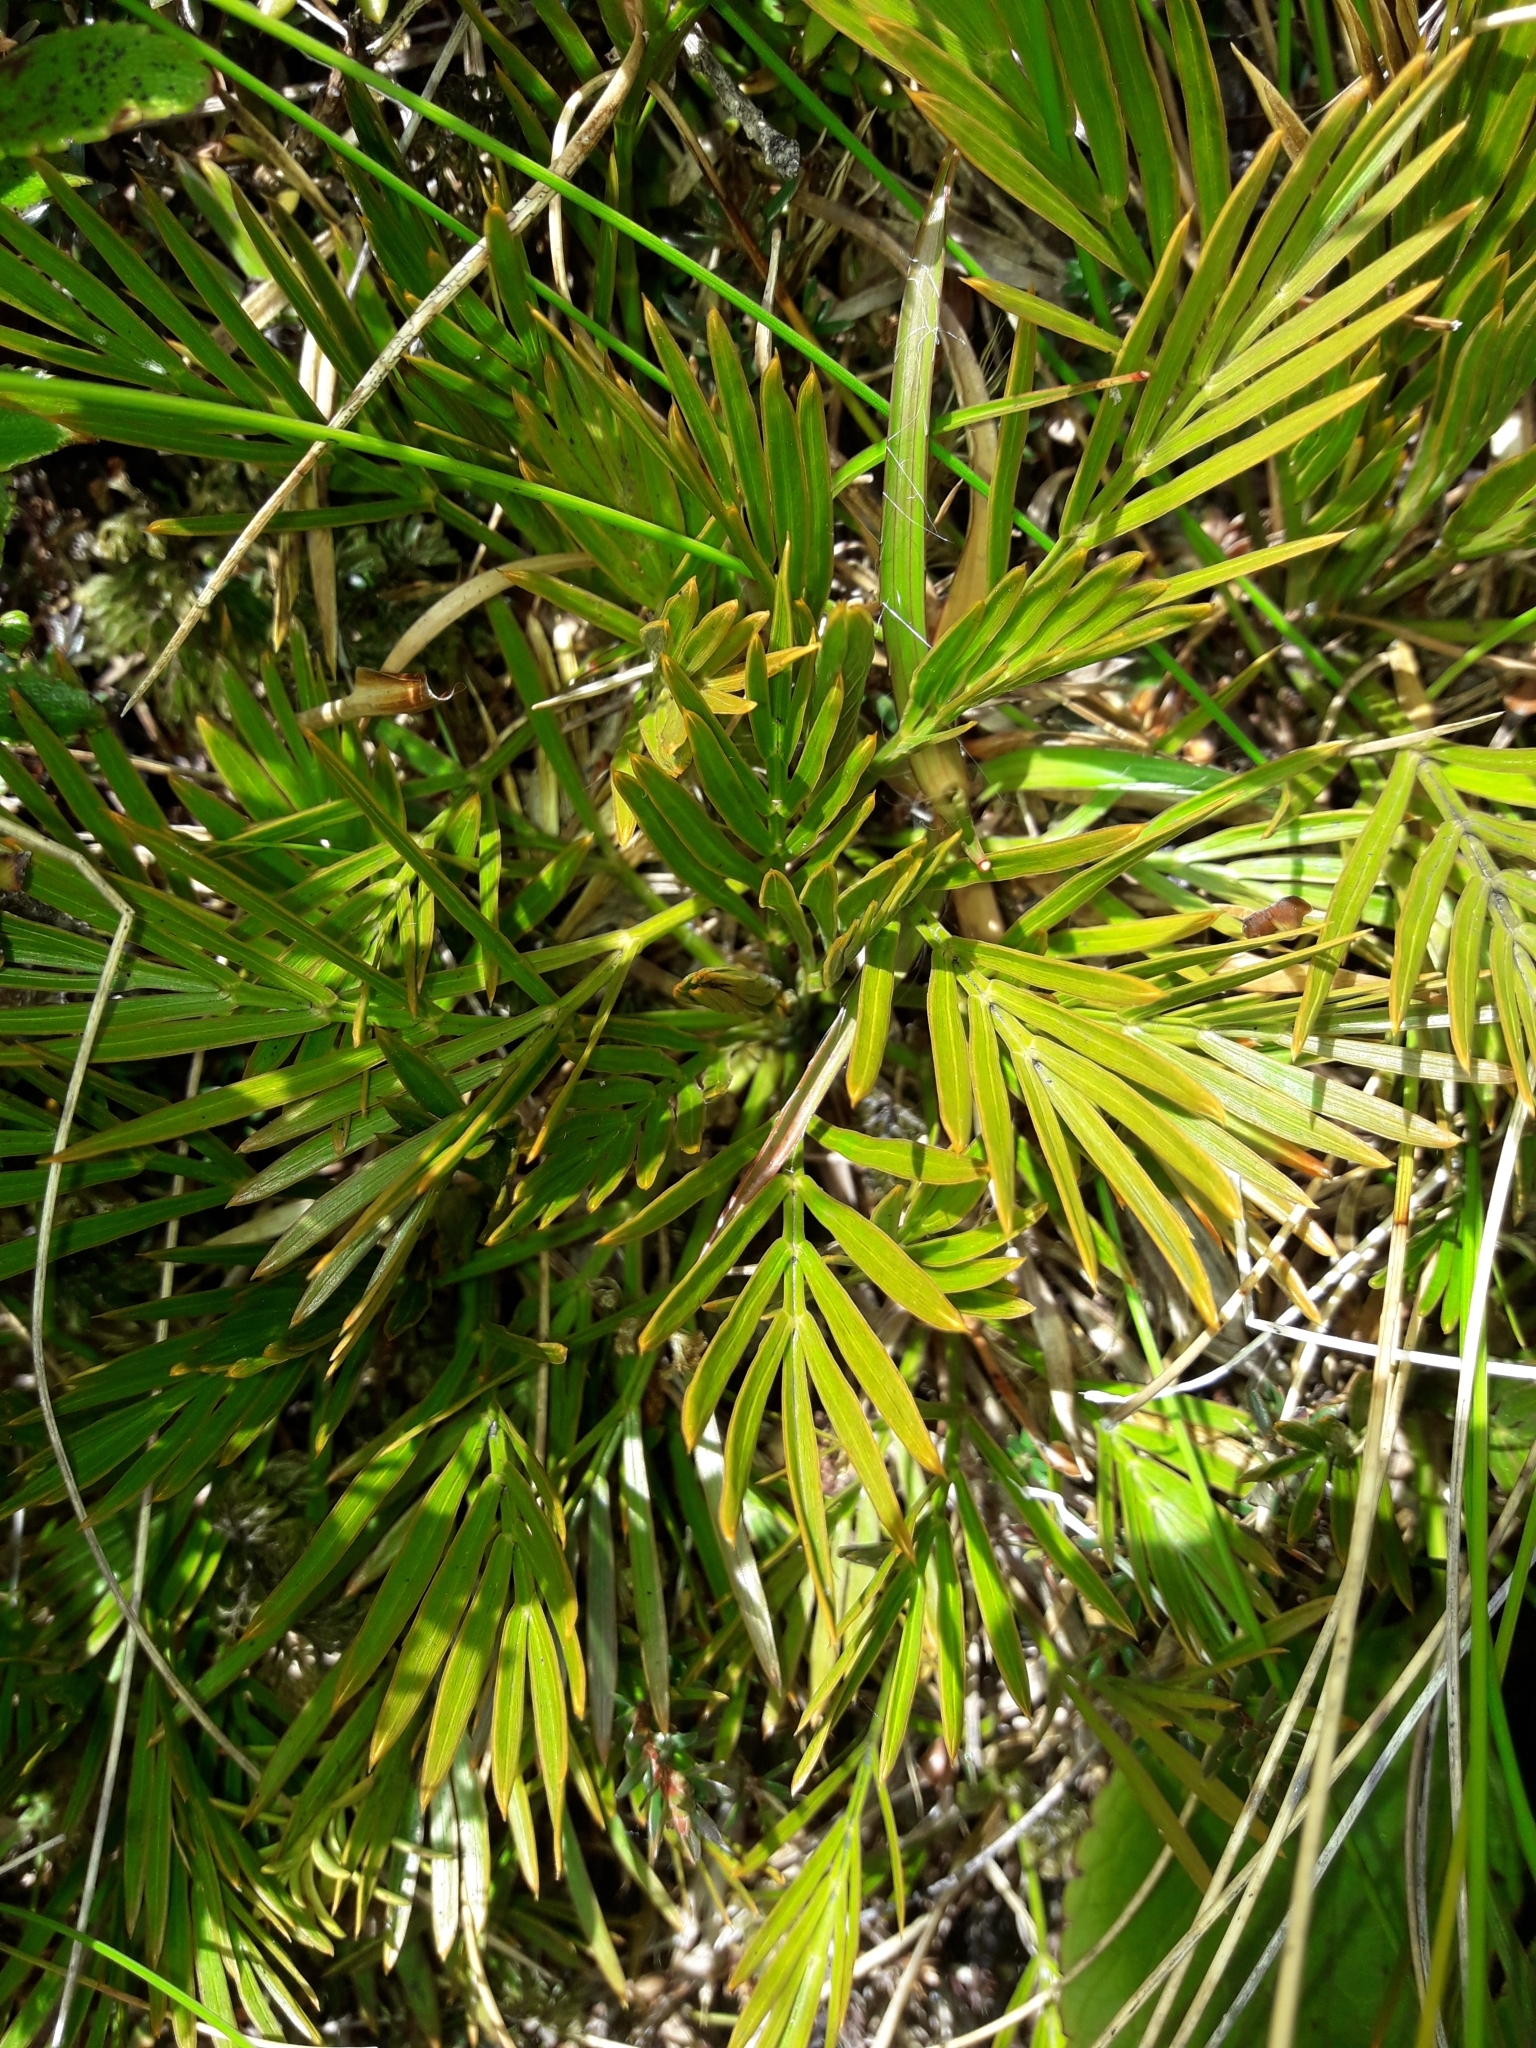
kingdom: Plantae
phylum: Tracheophyta
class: Magnoliopsida
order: Apiales
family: Apiaceae
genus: Aciphylla
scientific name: Aciphylla similis
